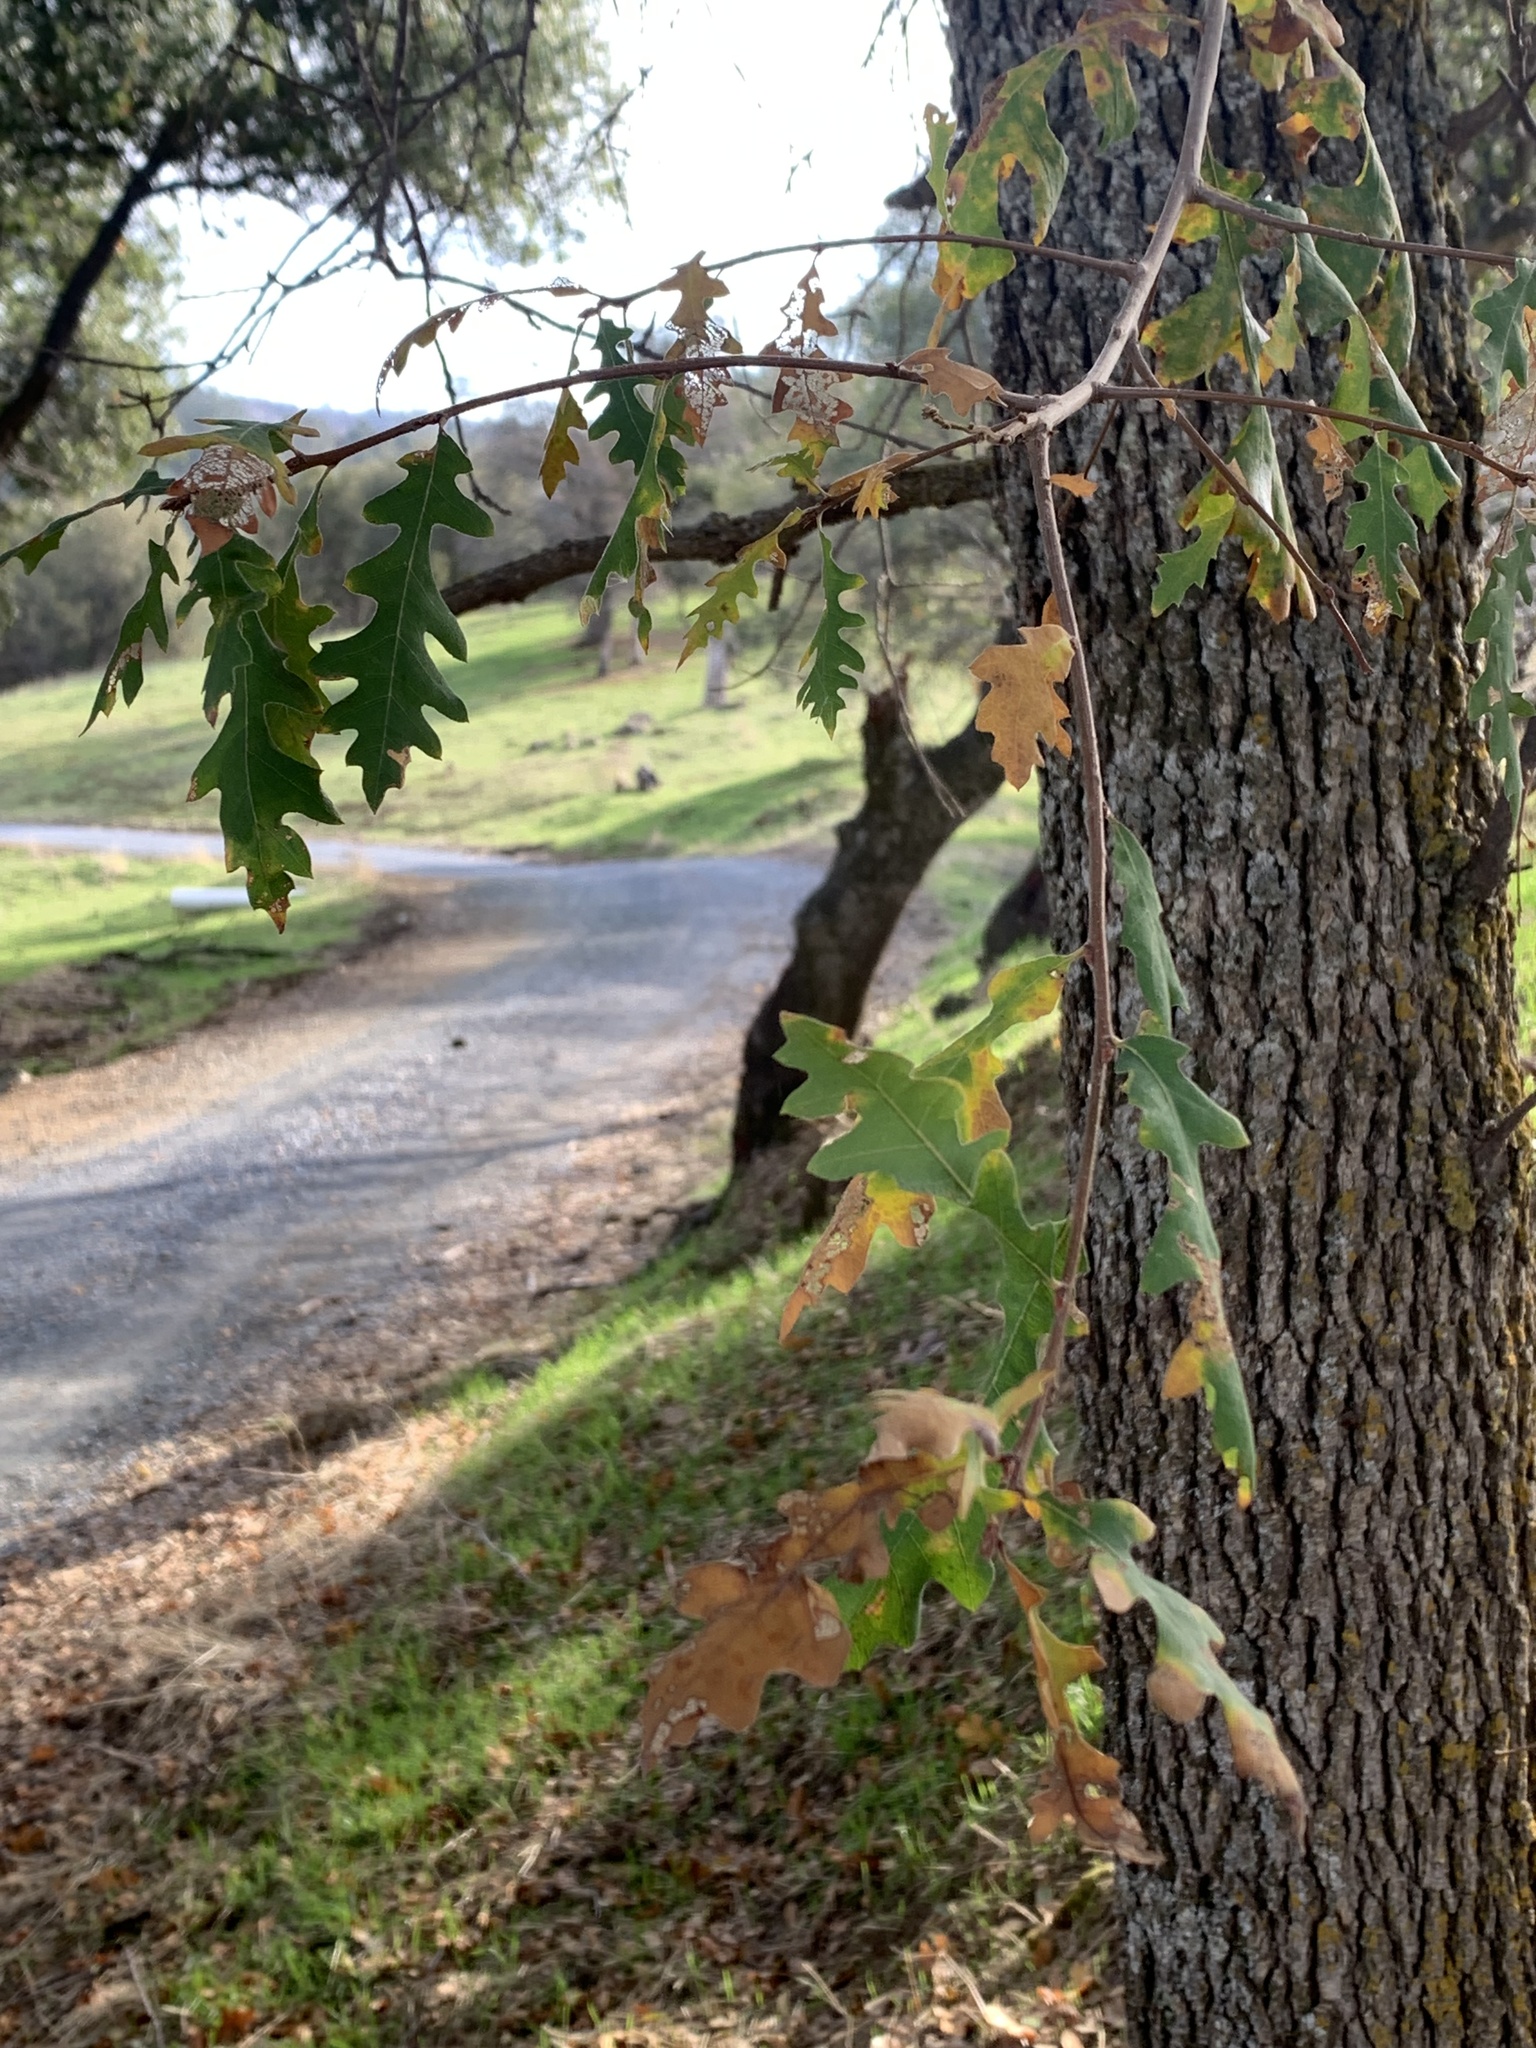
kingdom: Plantae
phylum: Tracheophyta
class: Magnoliopsida
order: Fagales
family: Fagaceae
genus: Quercus
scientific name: Quercus jolonensis
